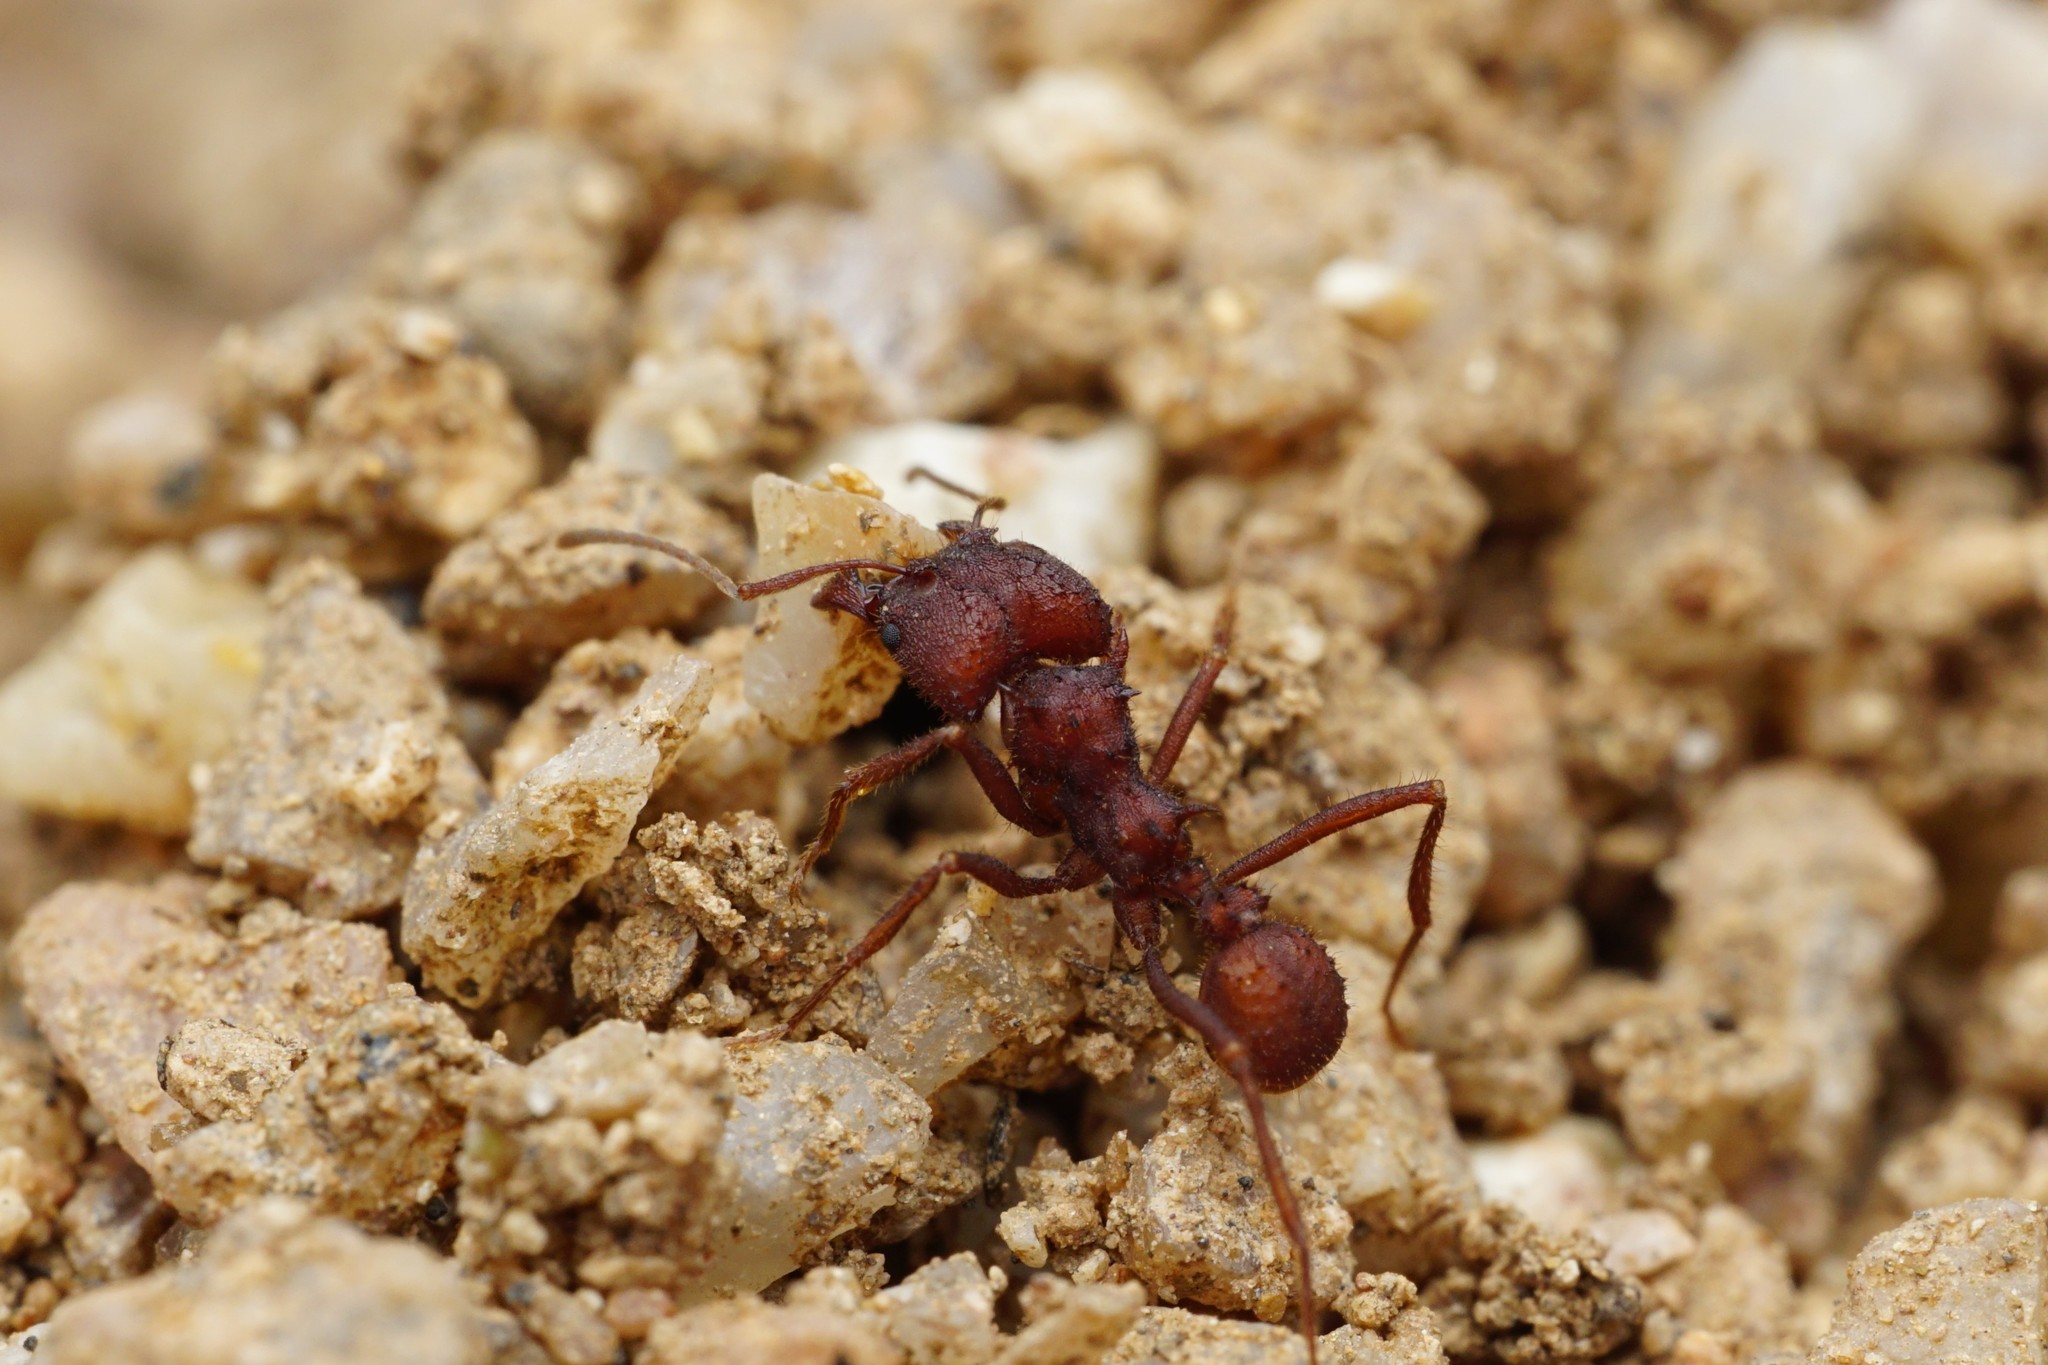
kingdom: Animalia
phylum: Arthropoda
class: Insecta
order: Hymenoptera
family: Formicidae
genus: Acromyrmex
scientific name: Acromyrmex versicolor
